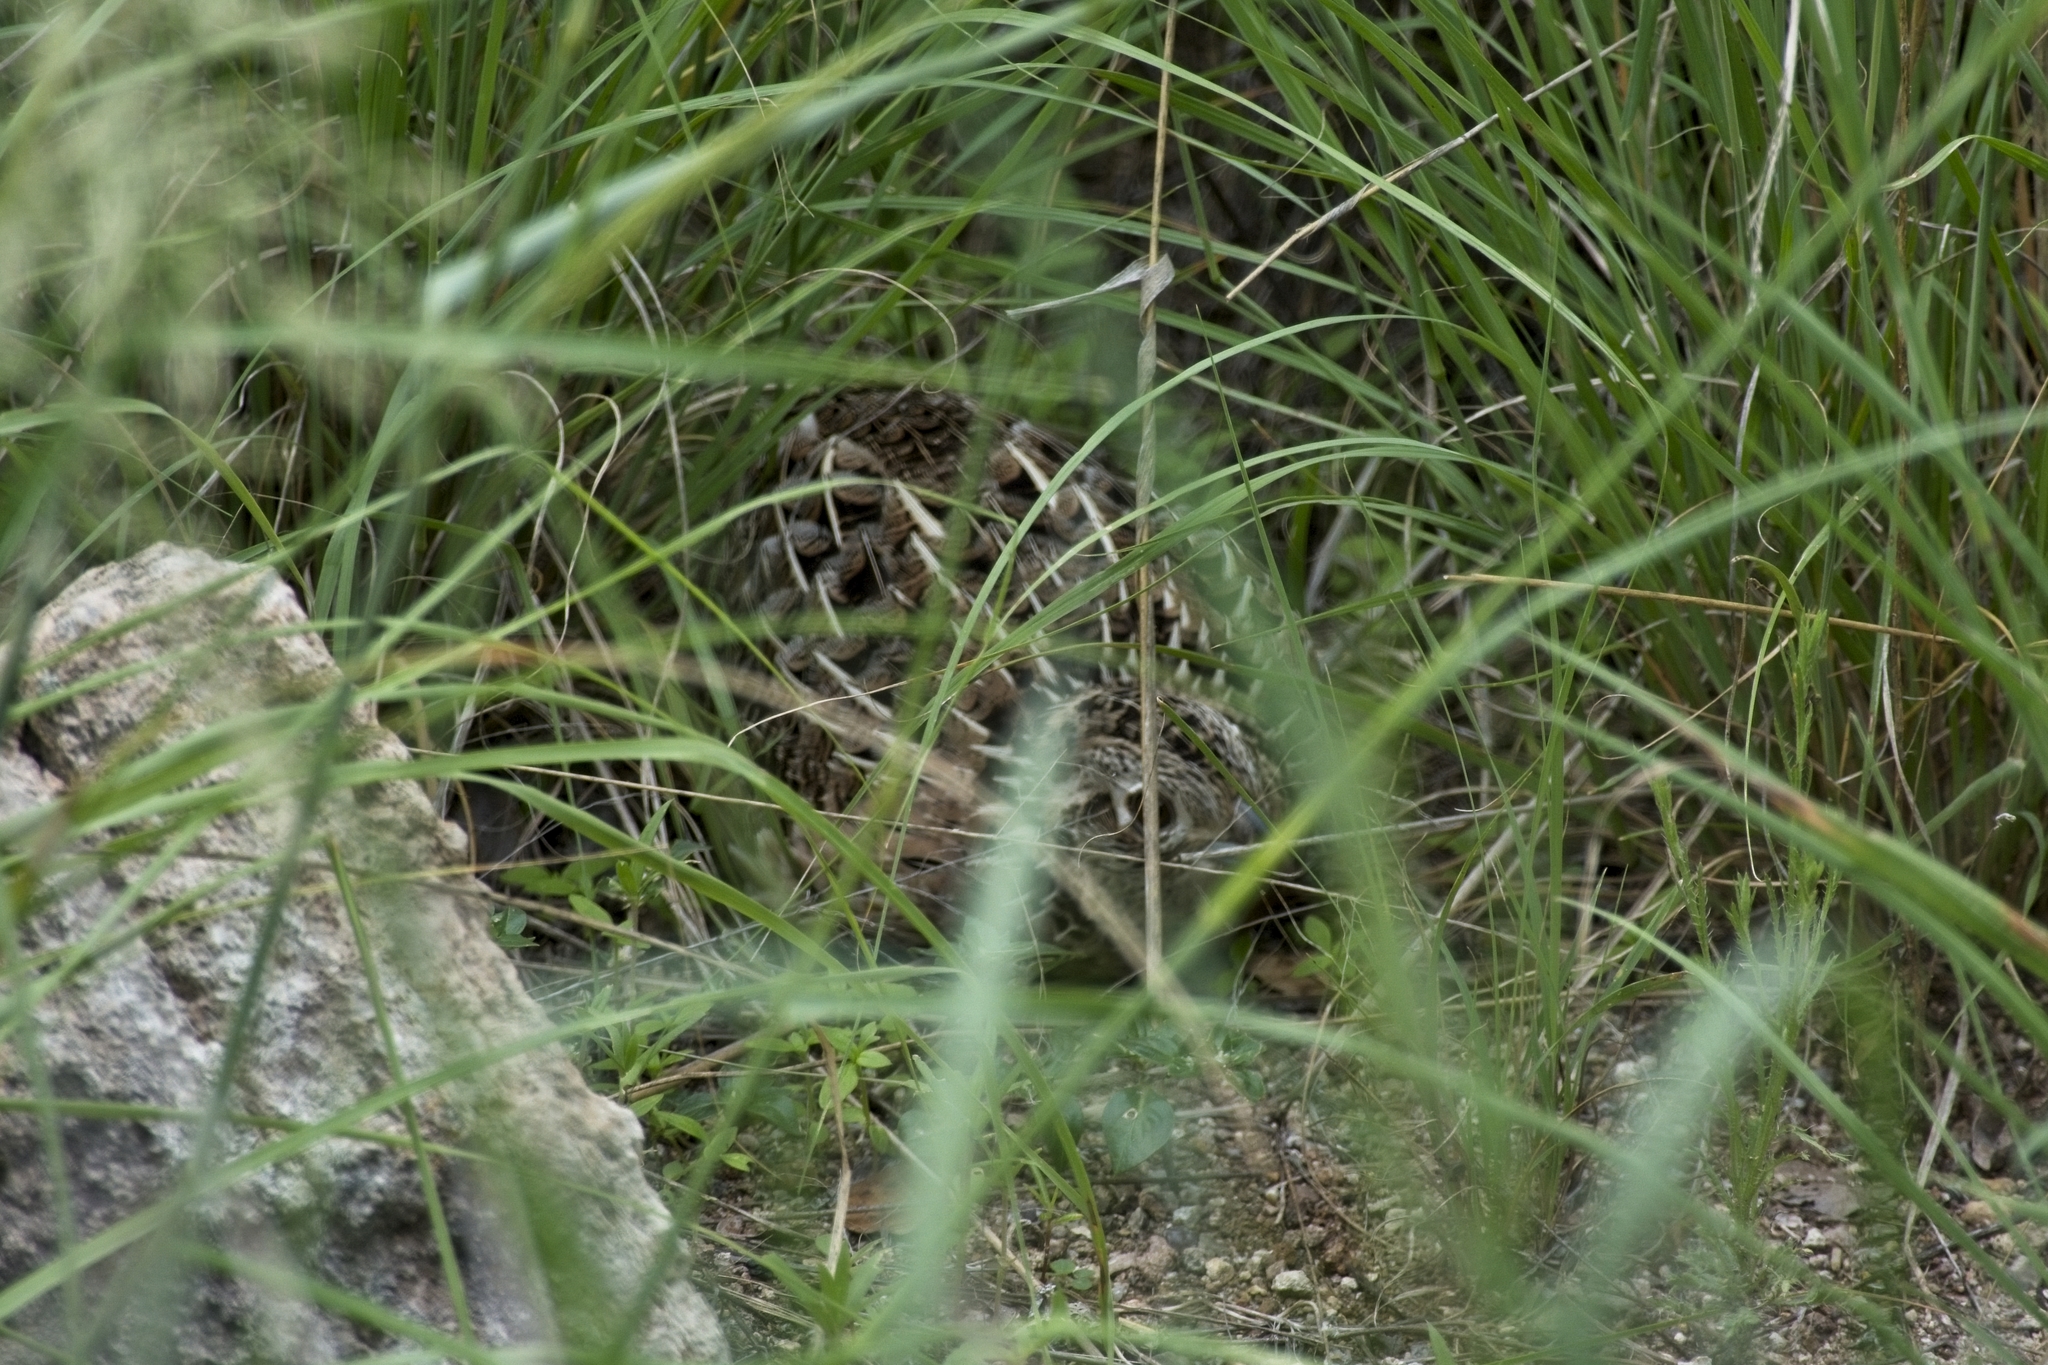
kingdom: Animalia
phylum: Chordata
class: Aves
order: Galliformes
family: Odontophoridae
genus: Cyrtonyx
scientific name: Cyrtonyx montezumae
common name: Montezuma quail
